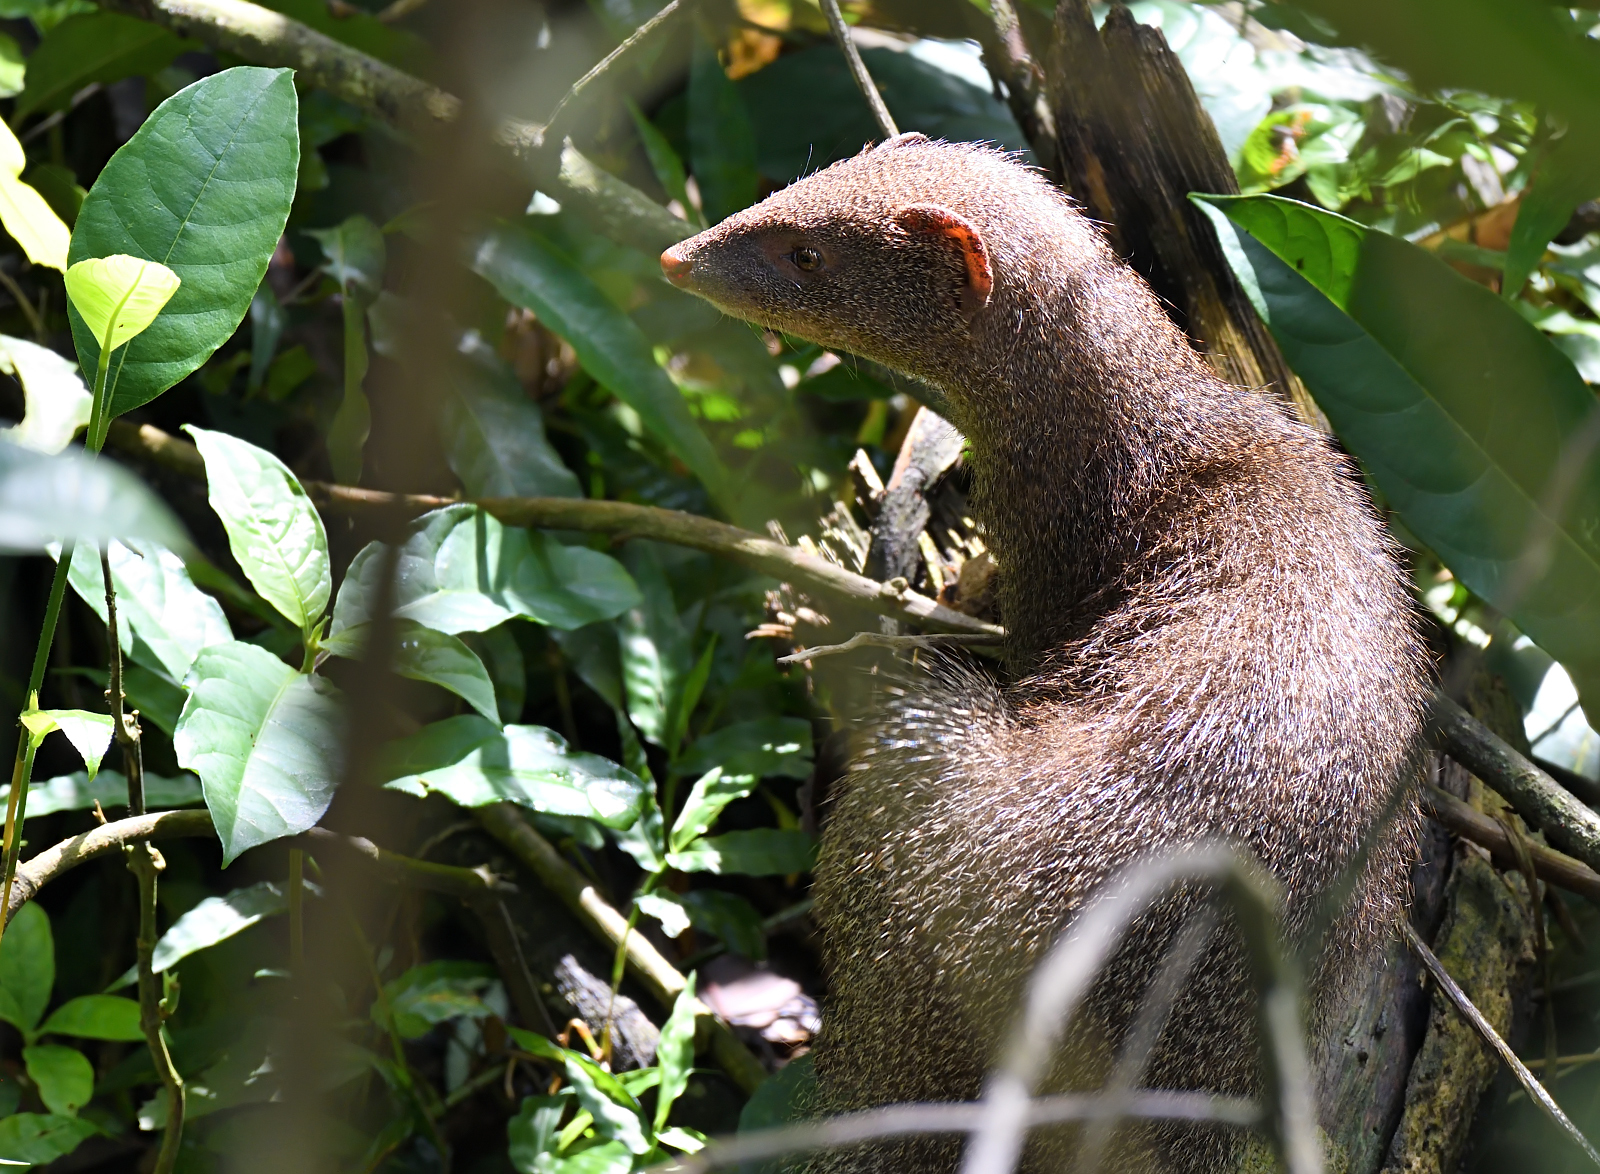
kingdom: Animalia
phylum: Chordata
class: Mammalia
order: Carnivora
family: Herpestidae
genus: Herpestes
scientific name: Herpestes edwardsi
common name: Indian gray mongoose
